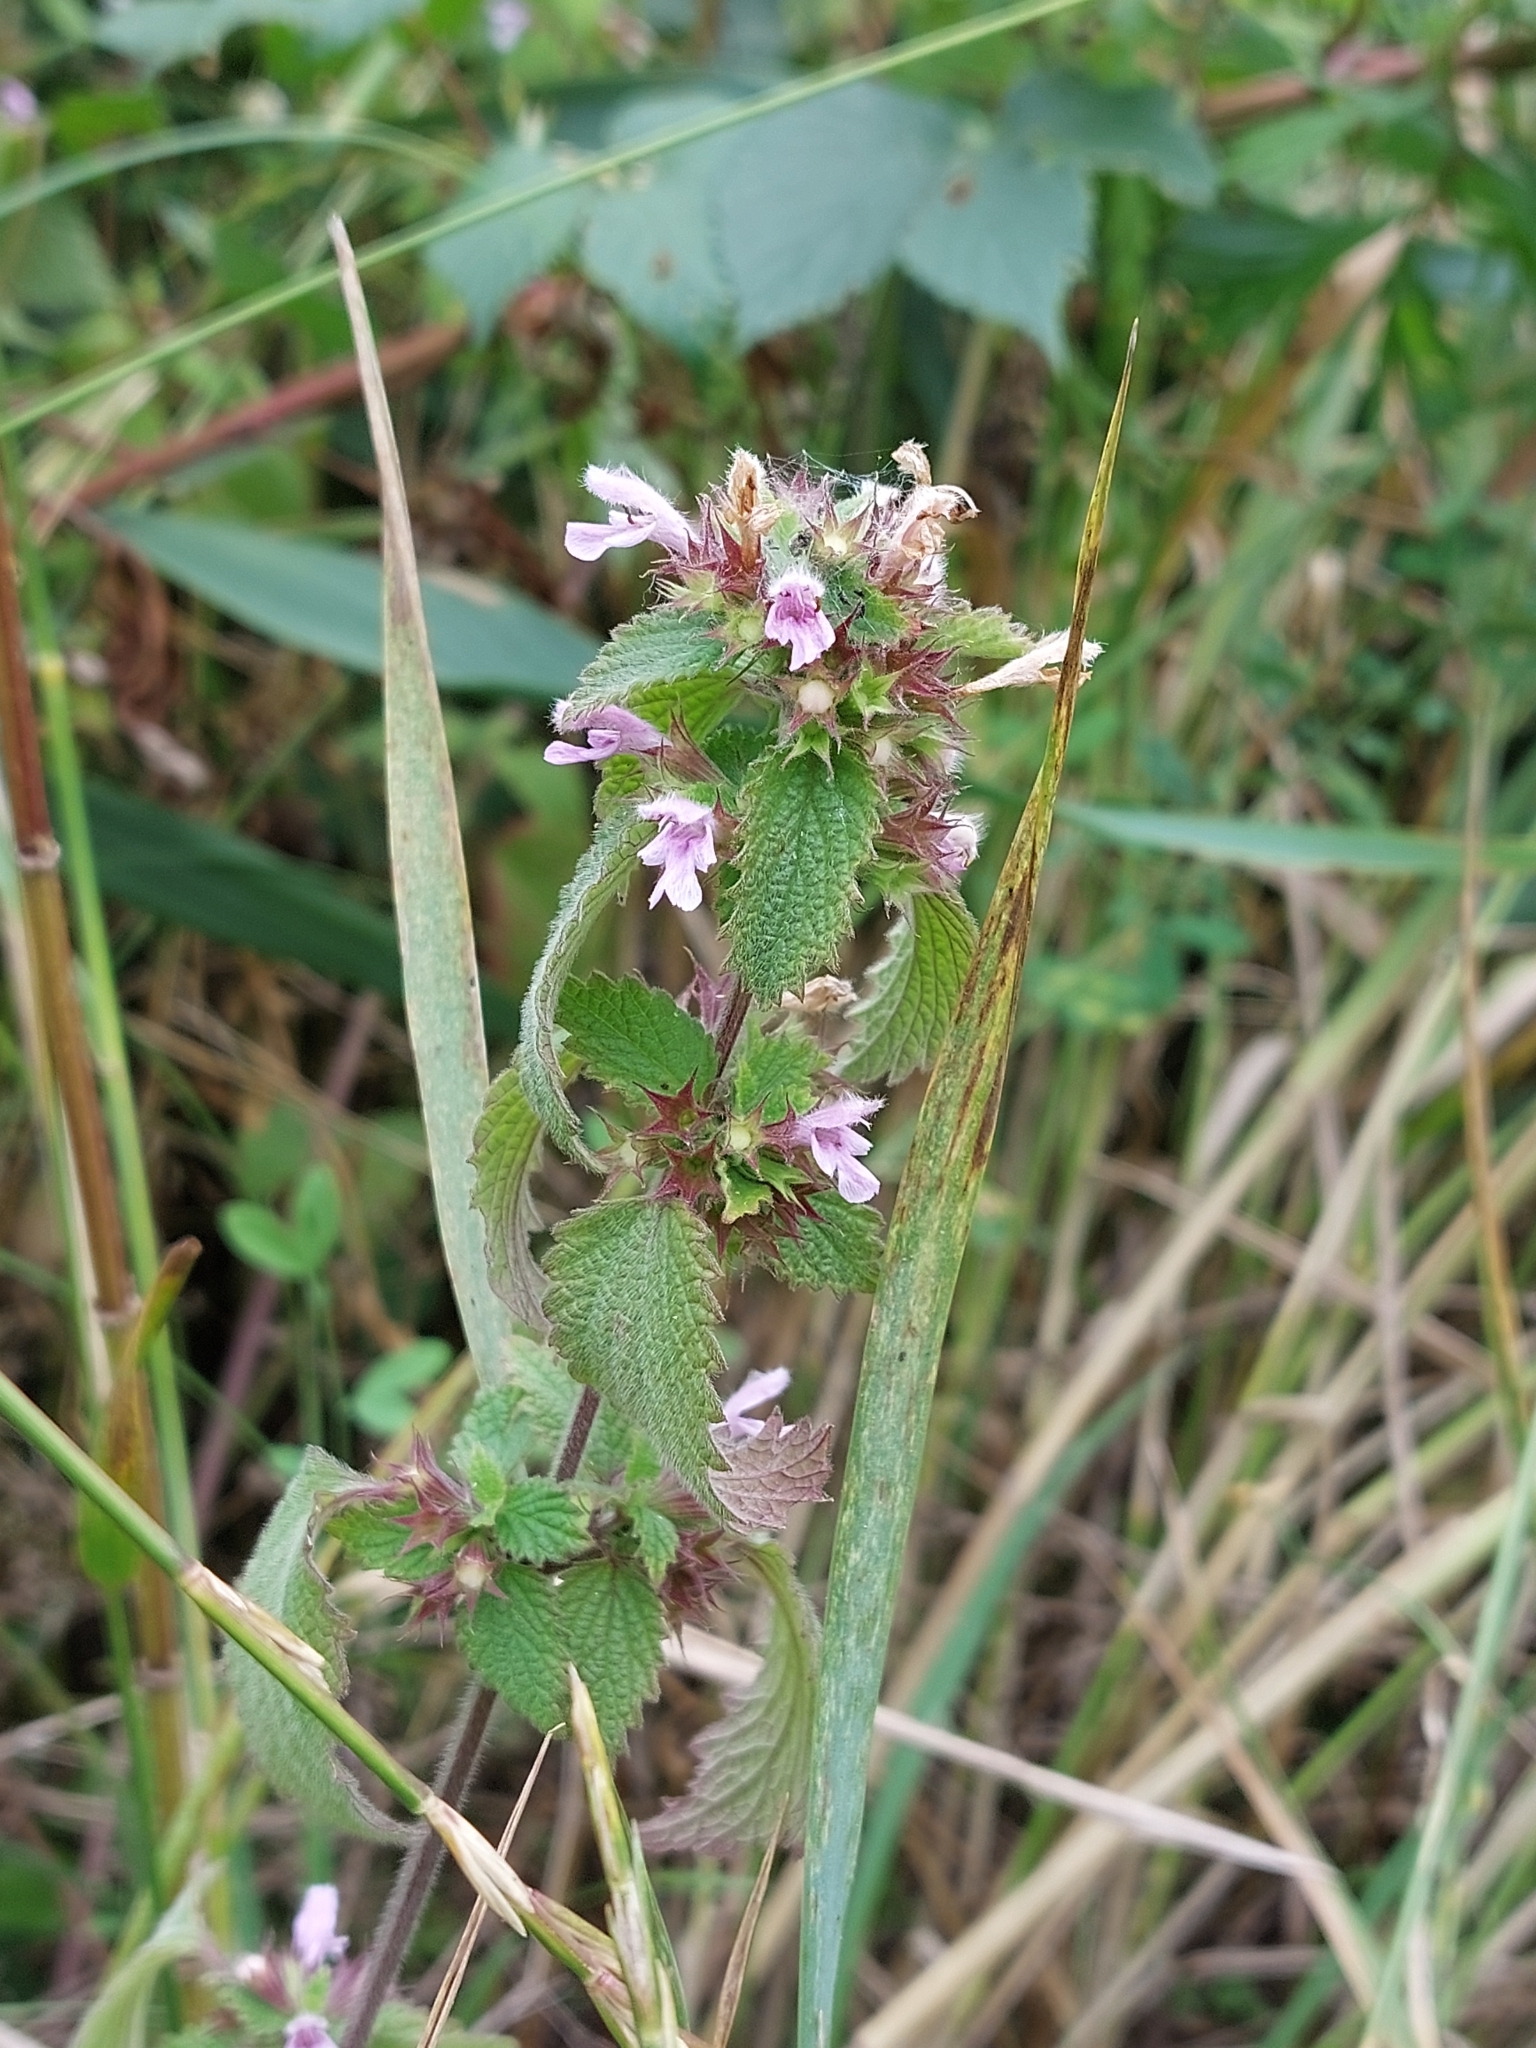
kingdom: Plantae
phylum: Tracheophyta
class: Magnoliopsida
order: Lamiales
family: Lamiaceae
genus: Ballota
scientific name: Ballota nigra
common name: Black horehound
